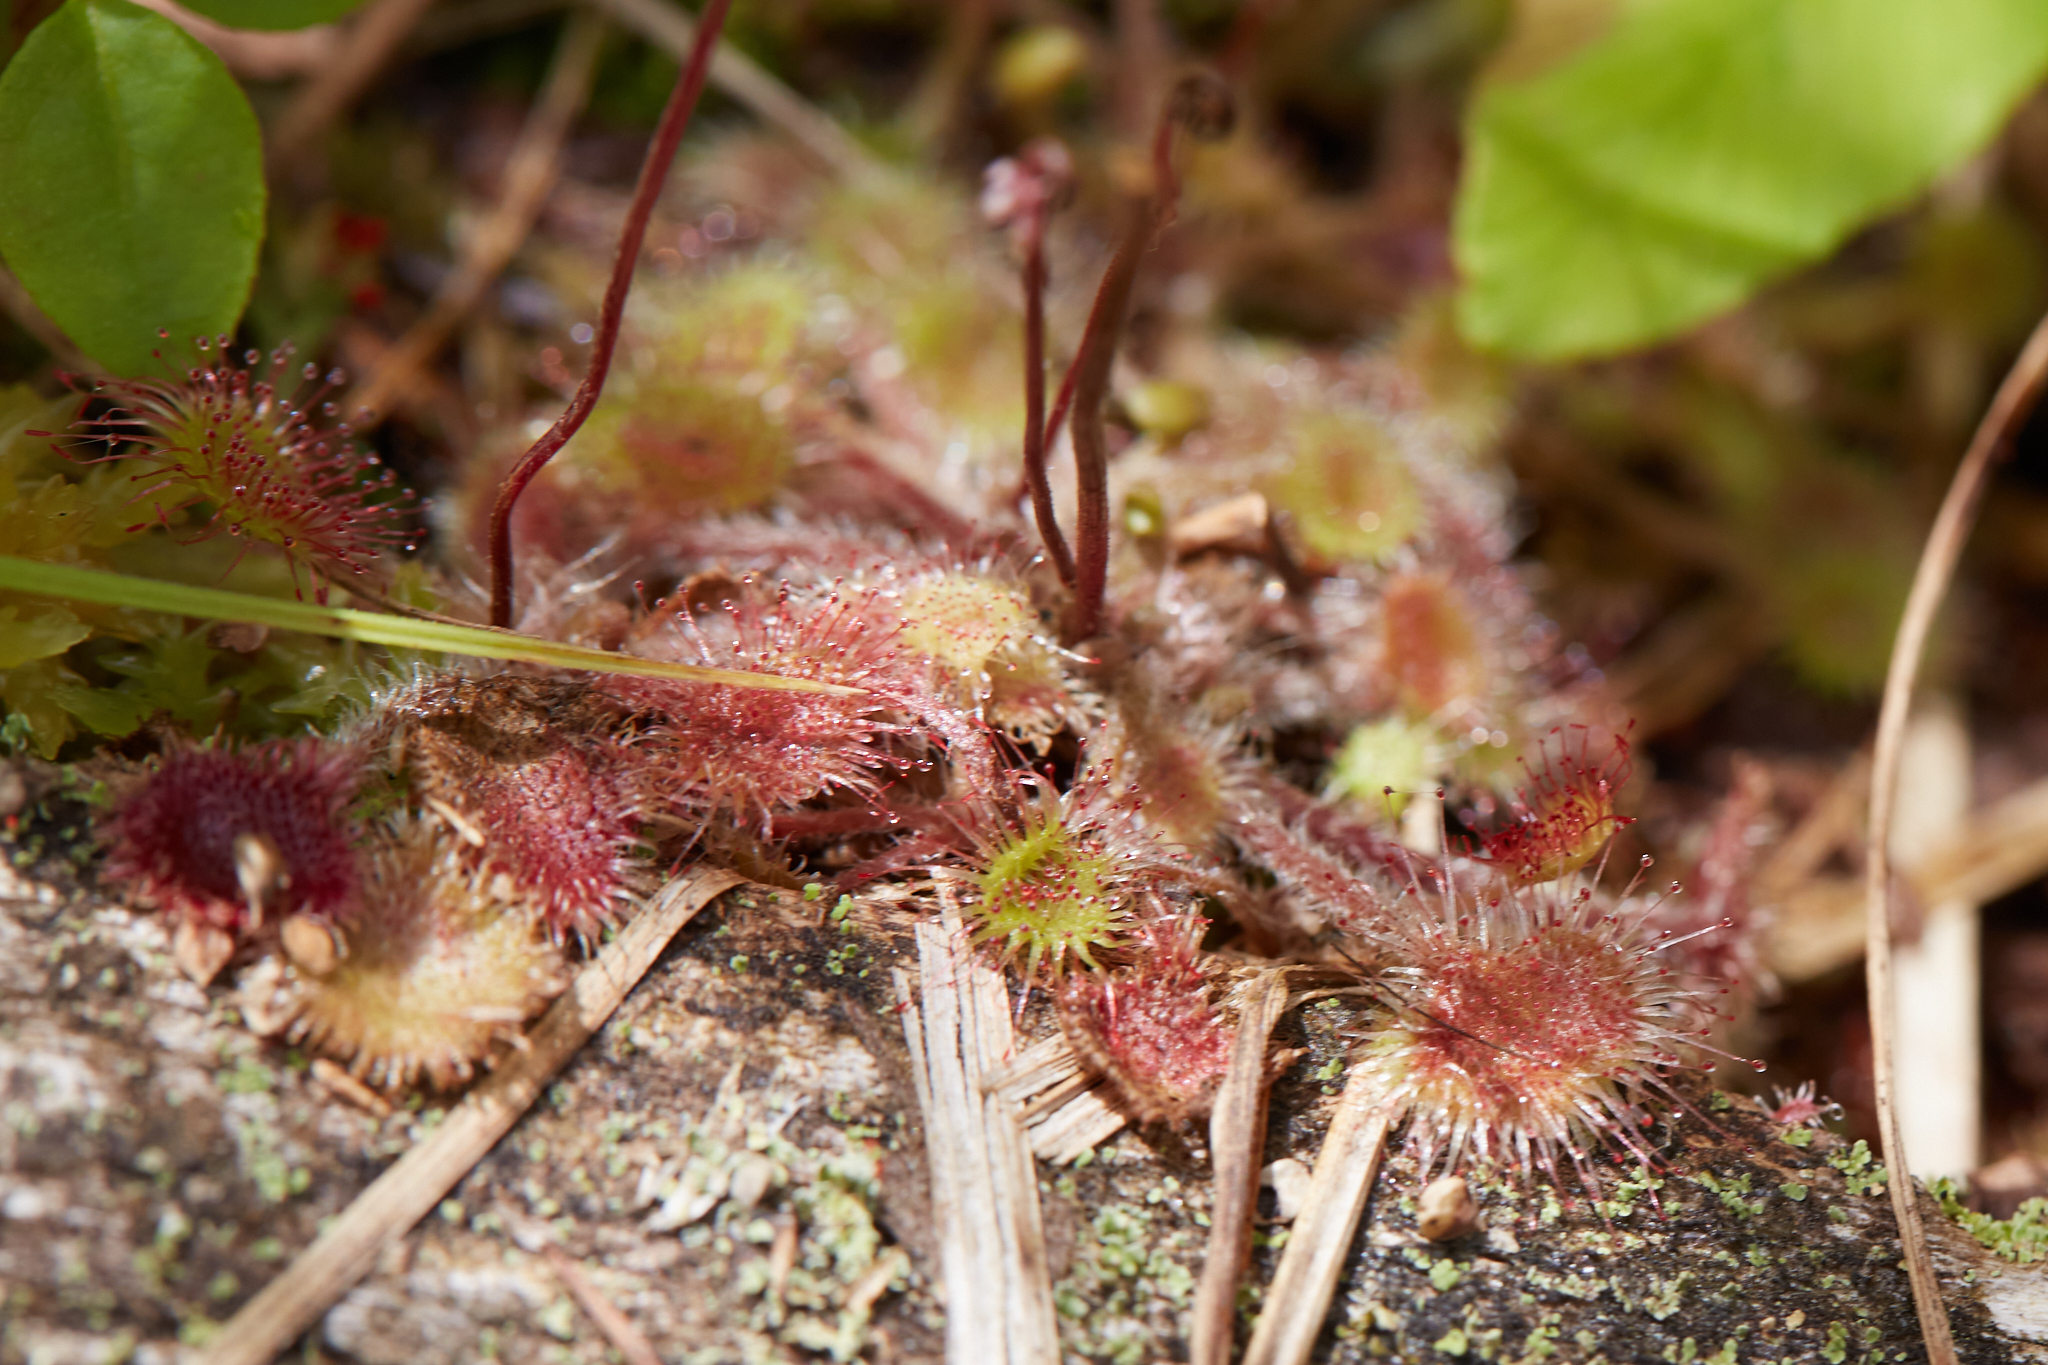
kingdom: Plantae
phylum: Tracheophyta
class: Magnoliopsida
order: Caryophyllales
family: Droseraceae
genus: Drosera
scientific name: Drosera rotundifolia
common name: Round-leaved sundew
